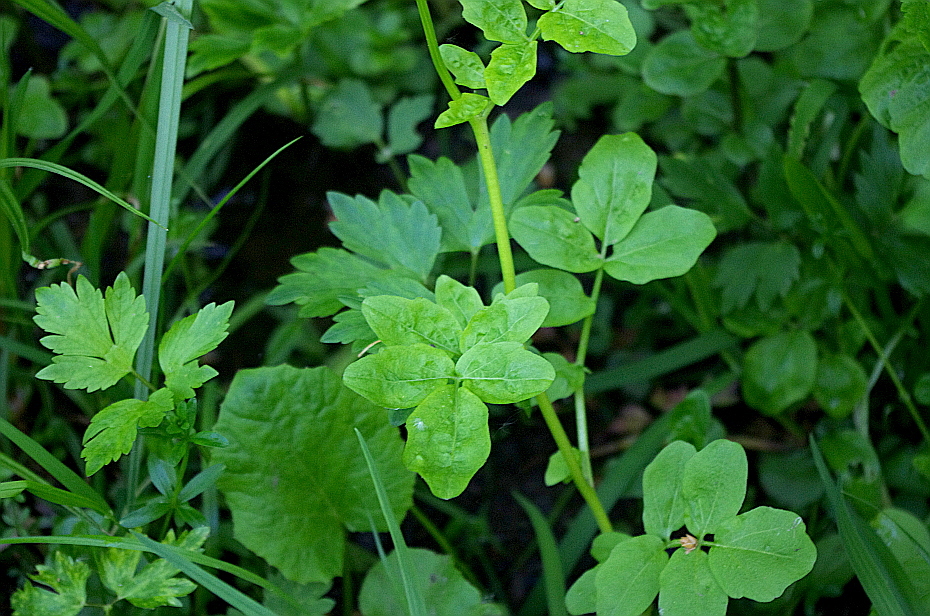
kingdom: Plantae
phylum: Tracheophyta
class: Magnoliopsida
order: Brassicales
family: Brassicaceae
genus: Cardamine
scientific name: Cardamine amara
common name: Large bitter-cress
